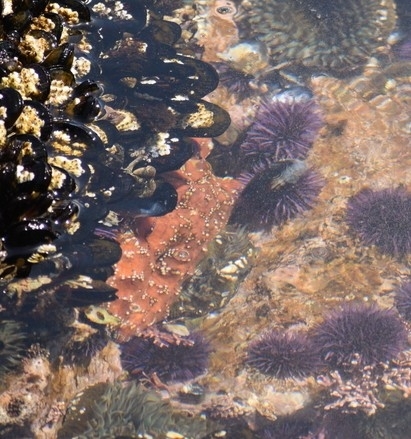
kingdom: Animalia
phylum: Echinodermata
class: Asteroidea
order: Forcipulatida
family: Asteriidae
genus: Pisaster
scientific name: Pisaster ochraceus
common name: Ochre stars
